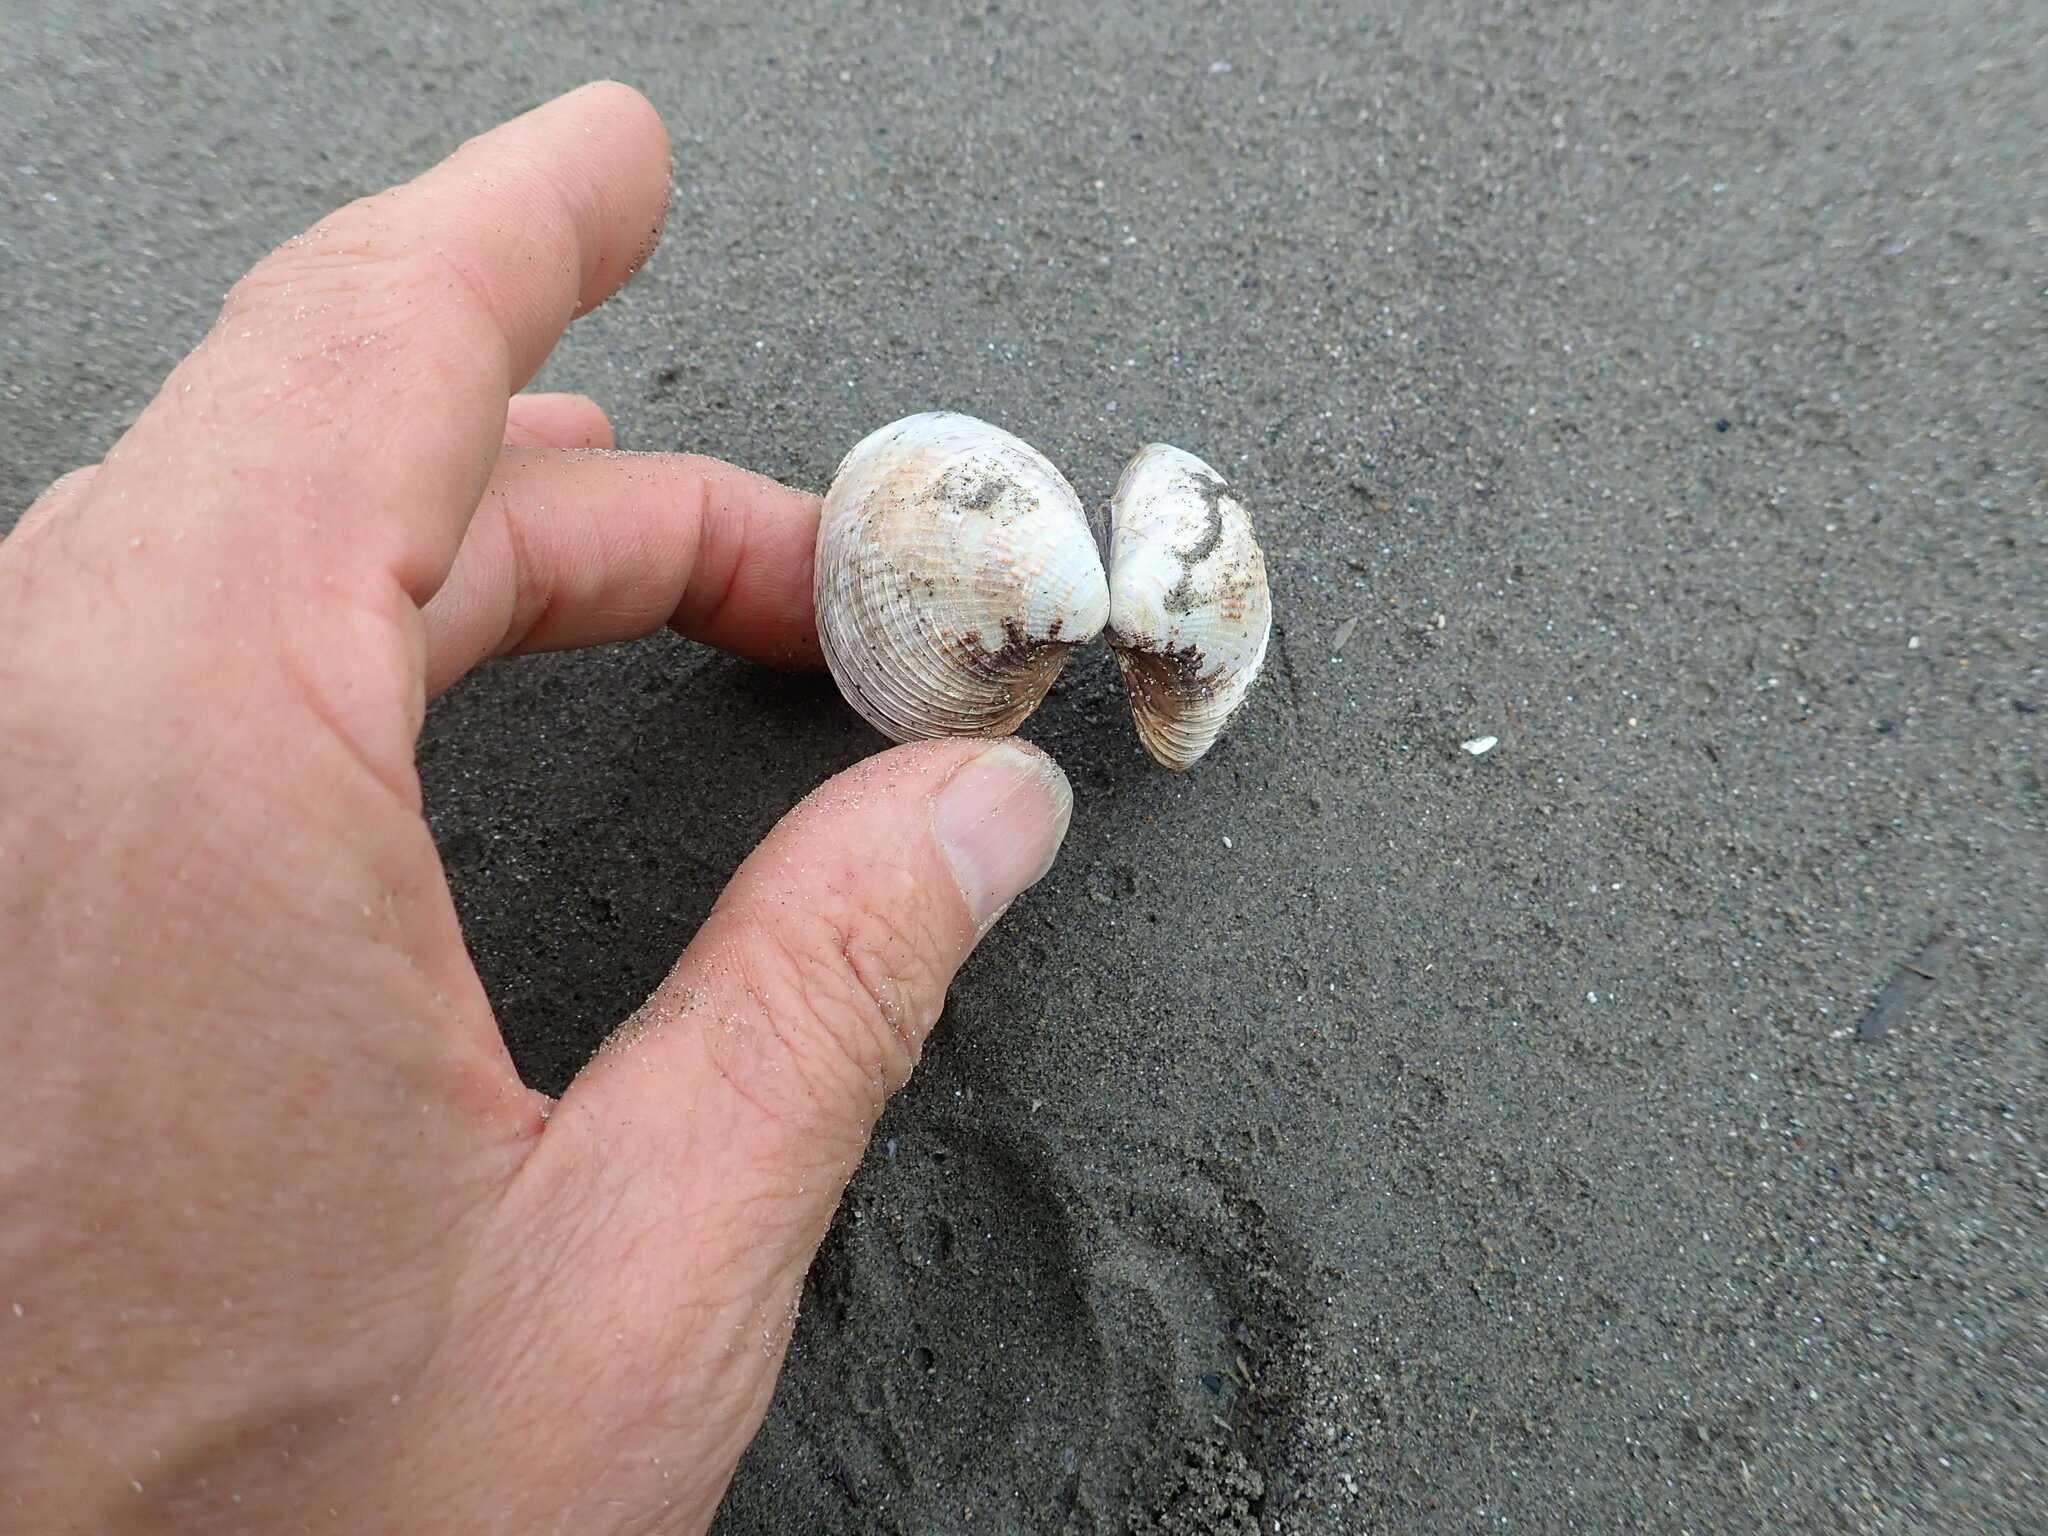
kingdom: Animalia
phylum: Mollusca
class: Bivalvia
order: Venerida
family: Veneridae
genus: Austrovenus
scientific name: Austrovenus stutchburyi
